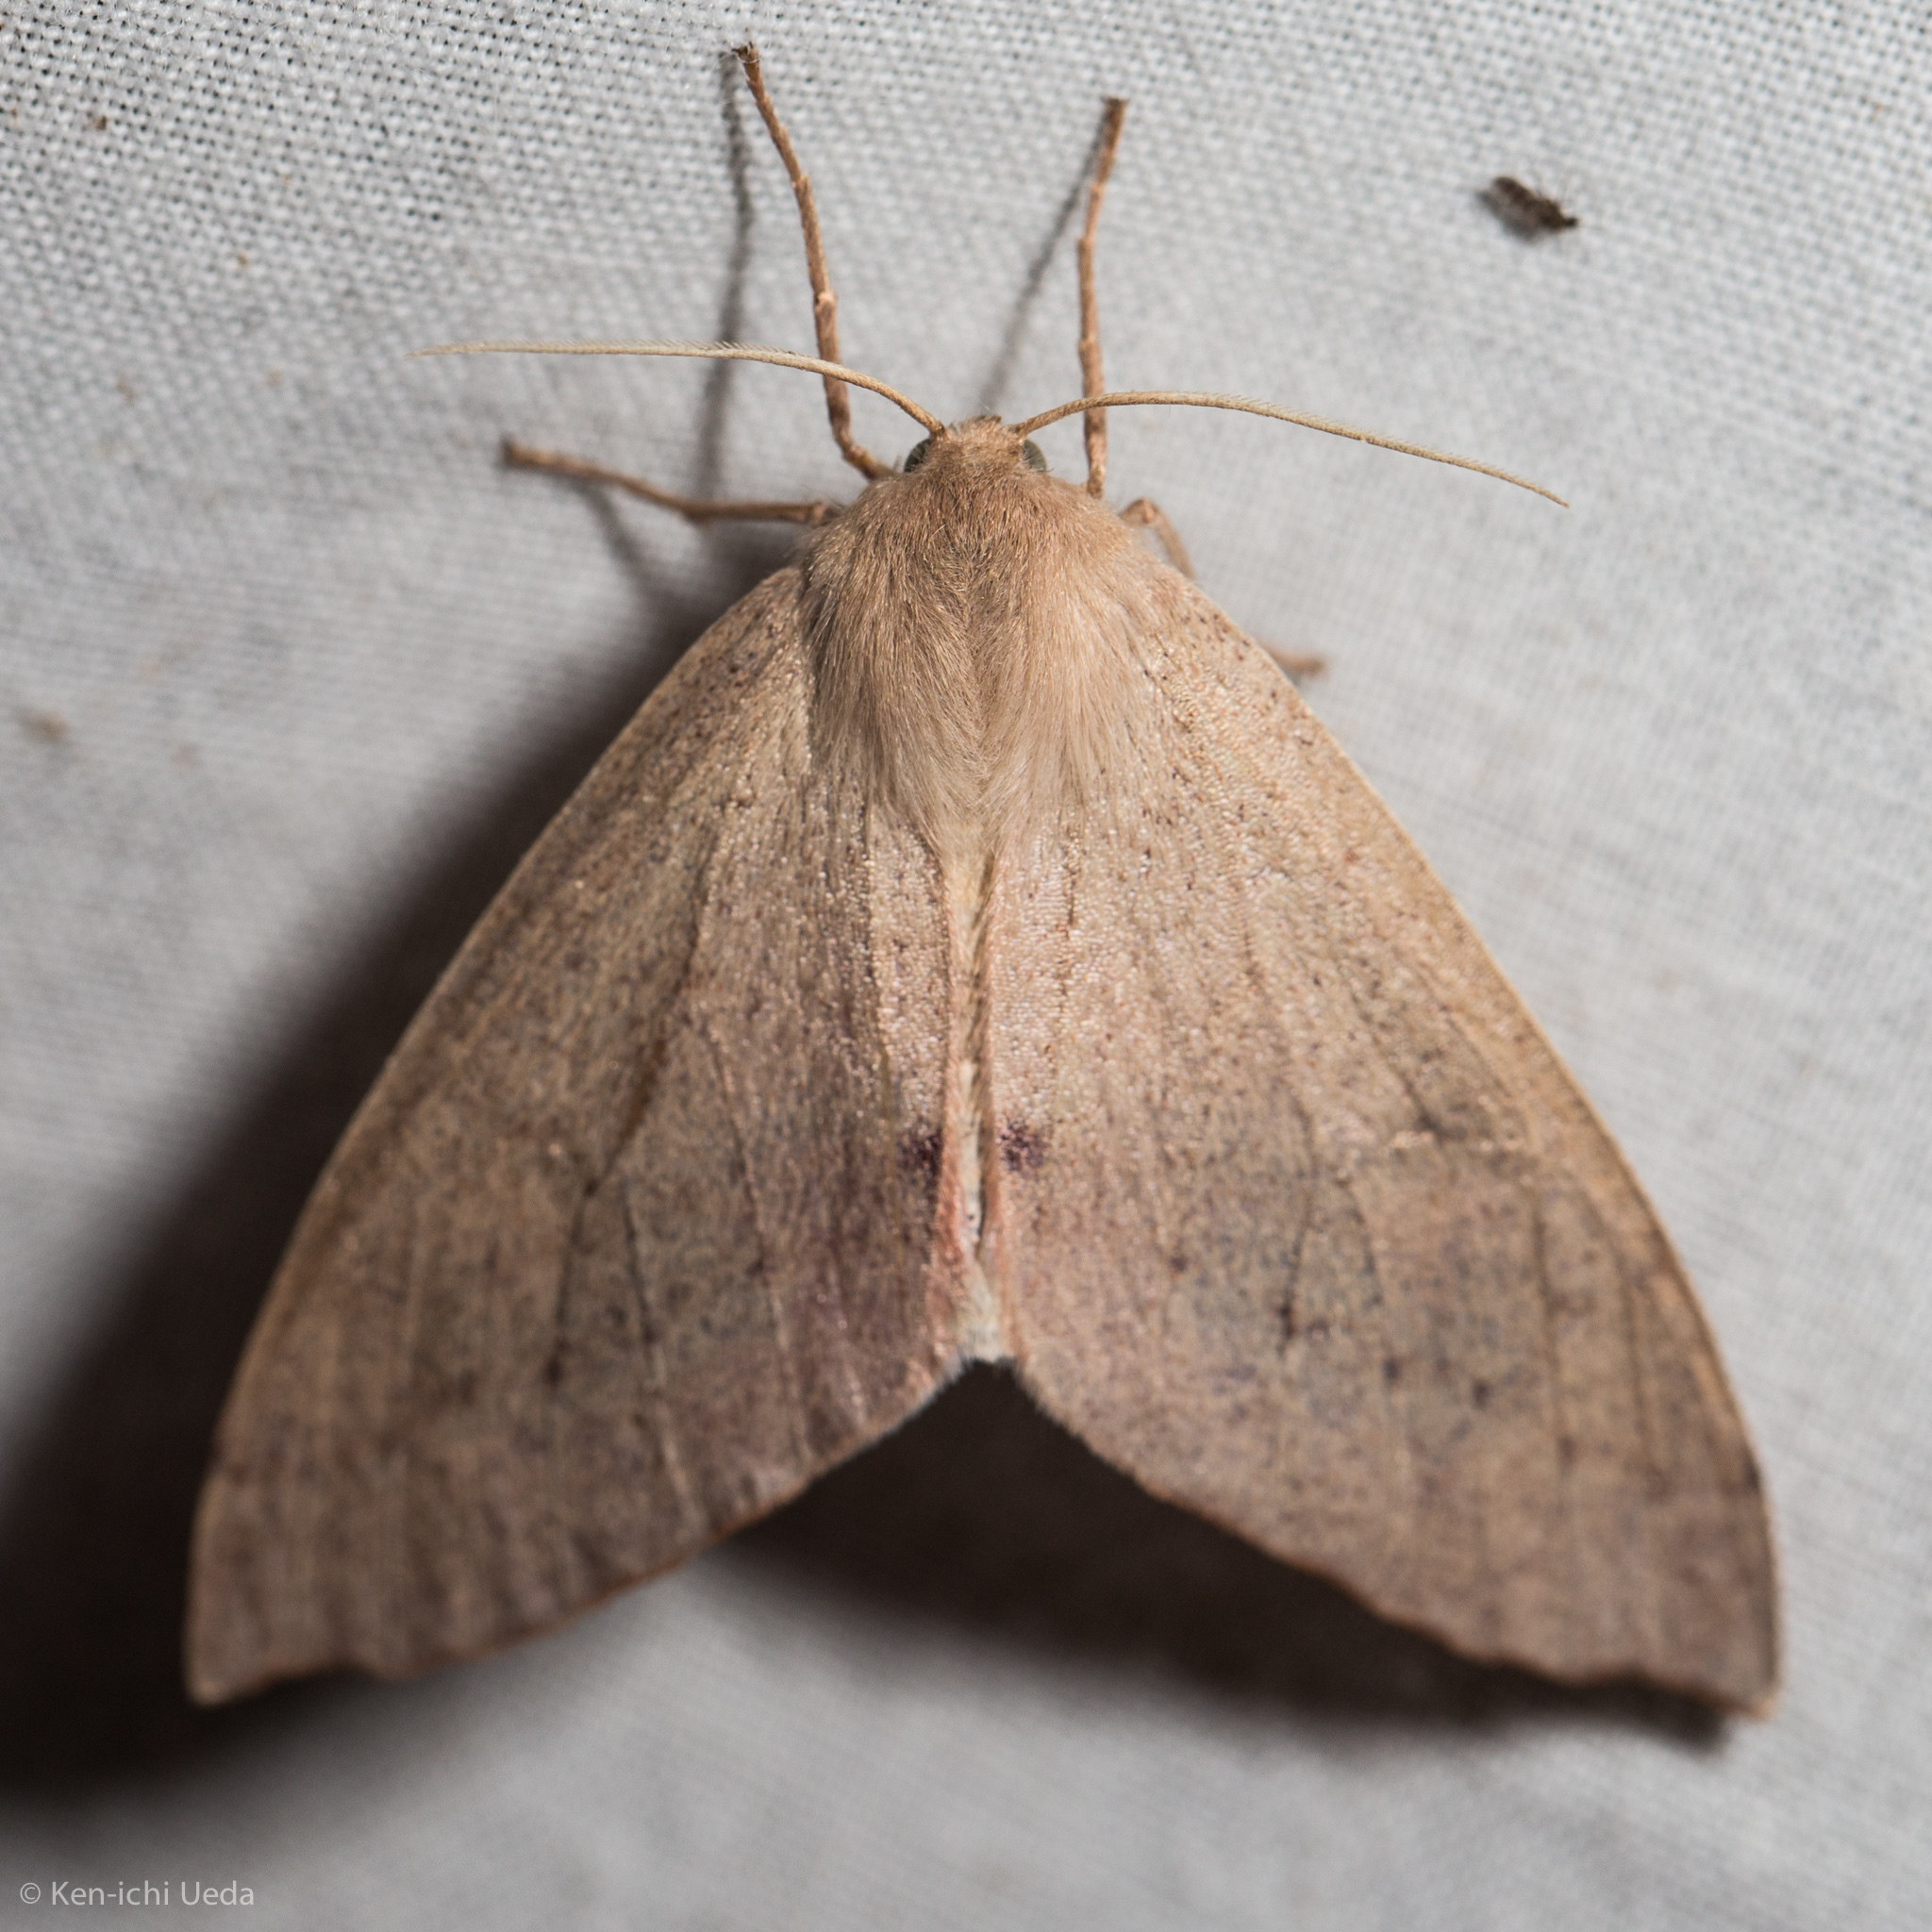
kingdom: Animalia
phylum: Arthropoda
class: Insecta
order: Lepidoptera
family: Geometridae
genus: Arhodia
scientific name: Arhodia lasiocamparia
